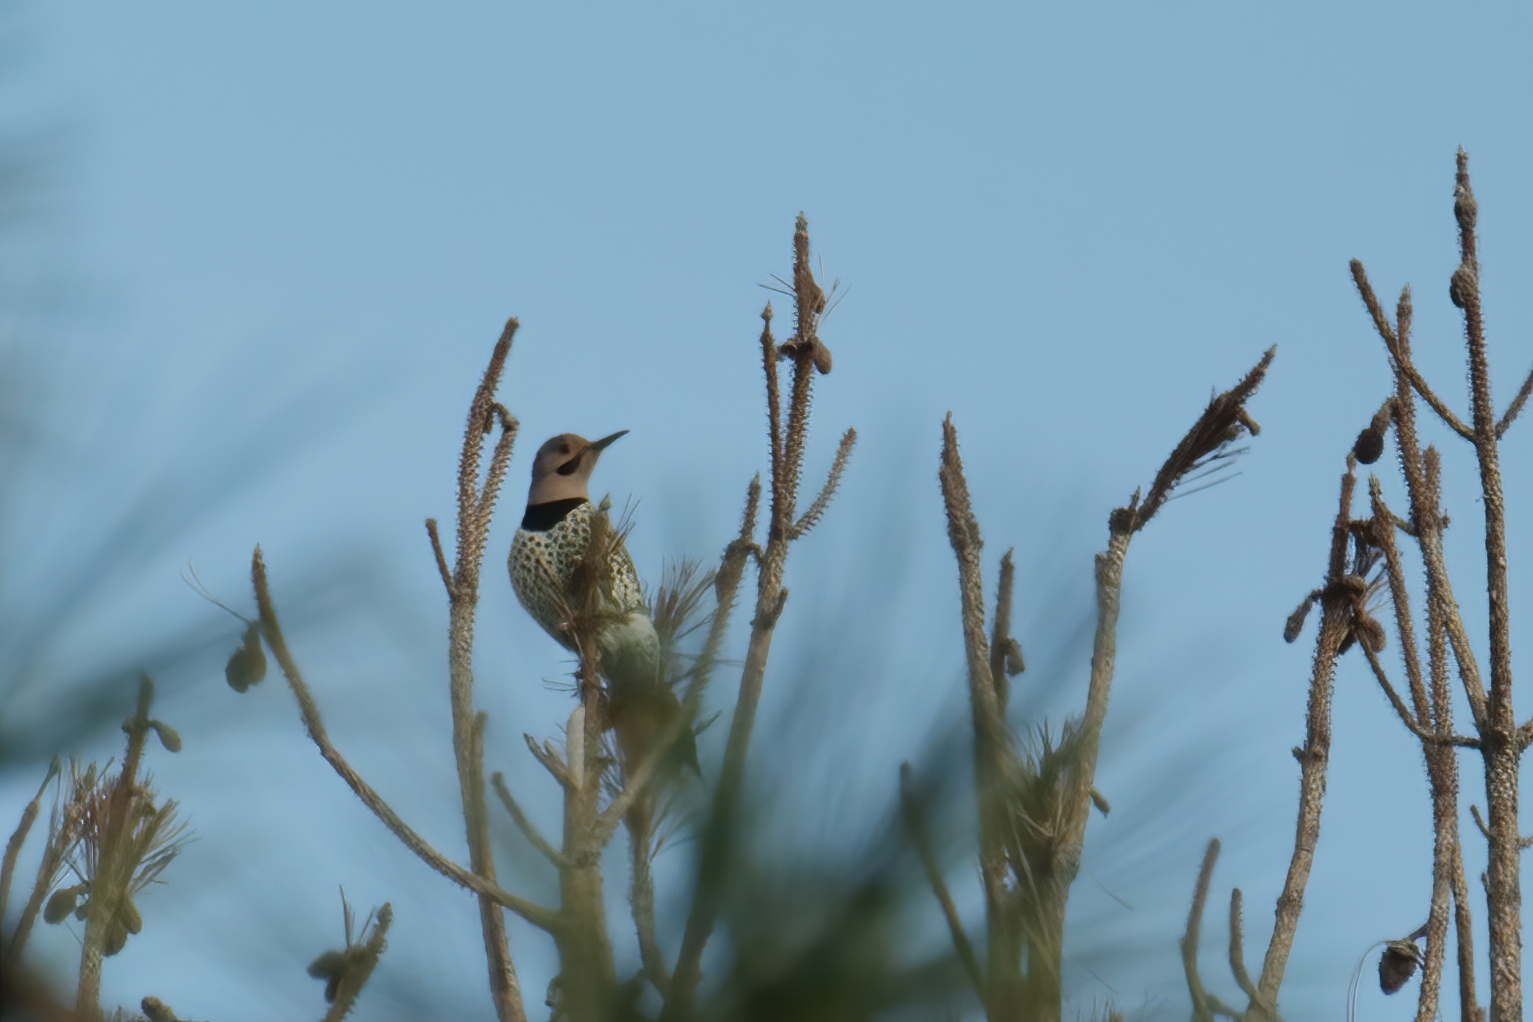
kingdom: Animalia
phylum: Chordata
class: Aves
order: Piciformes
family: Picidae
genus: Colaptes
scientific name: Colaptes auratus
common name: Northern flicker
